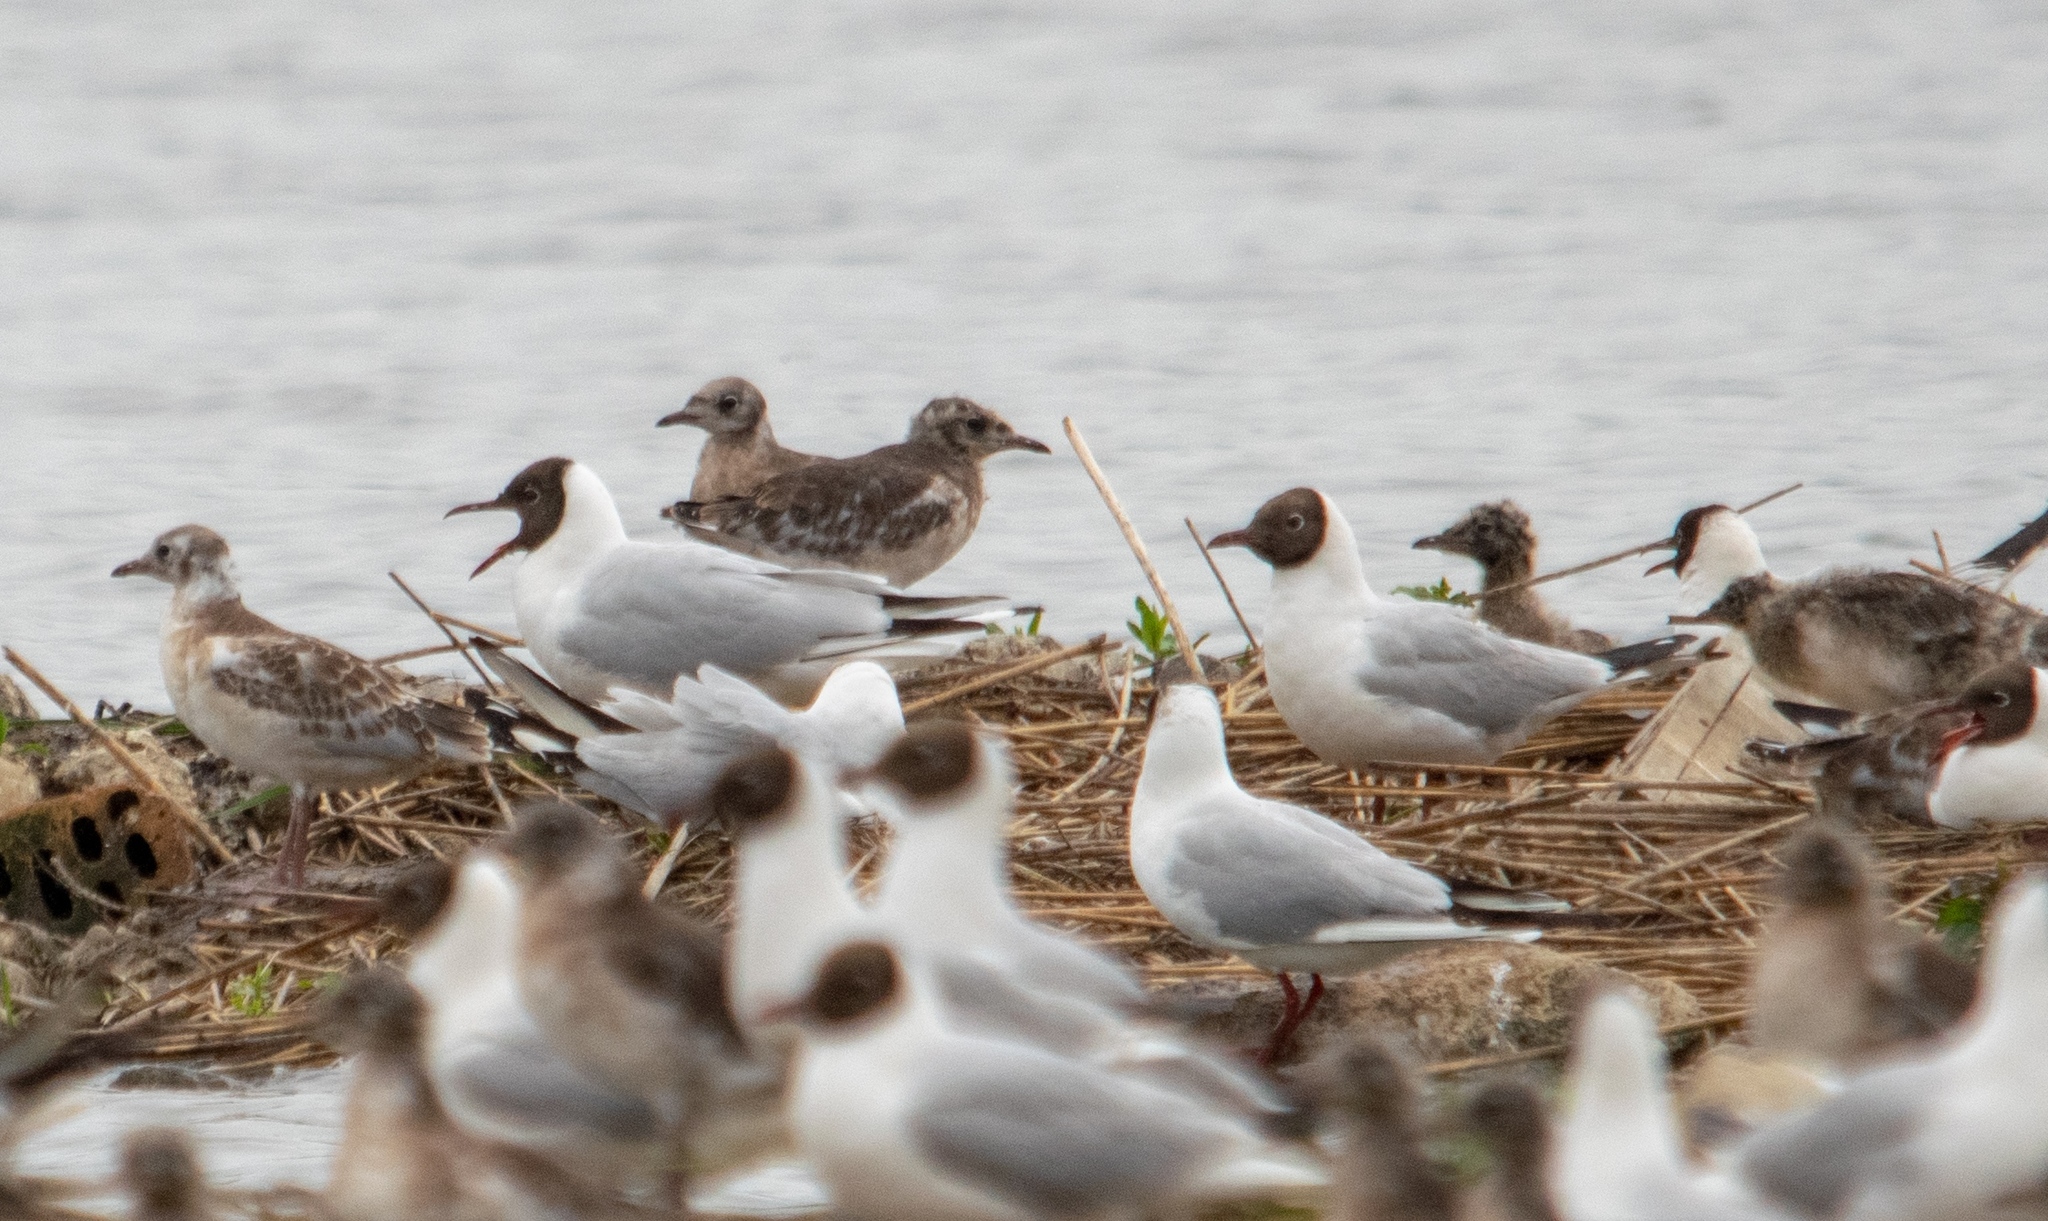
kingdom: Animalia
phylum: Chordata
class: Aves
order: Charadriiformes
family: Laridae
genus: Chroicocephalus
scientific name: Chroicocephalus ridibundus
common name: Black-headed gull
